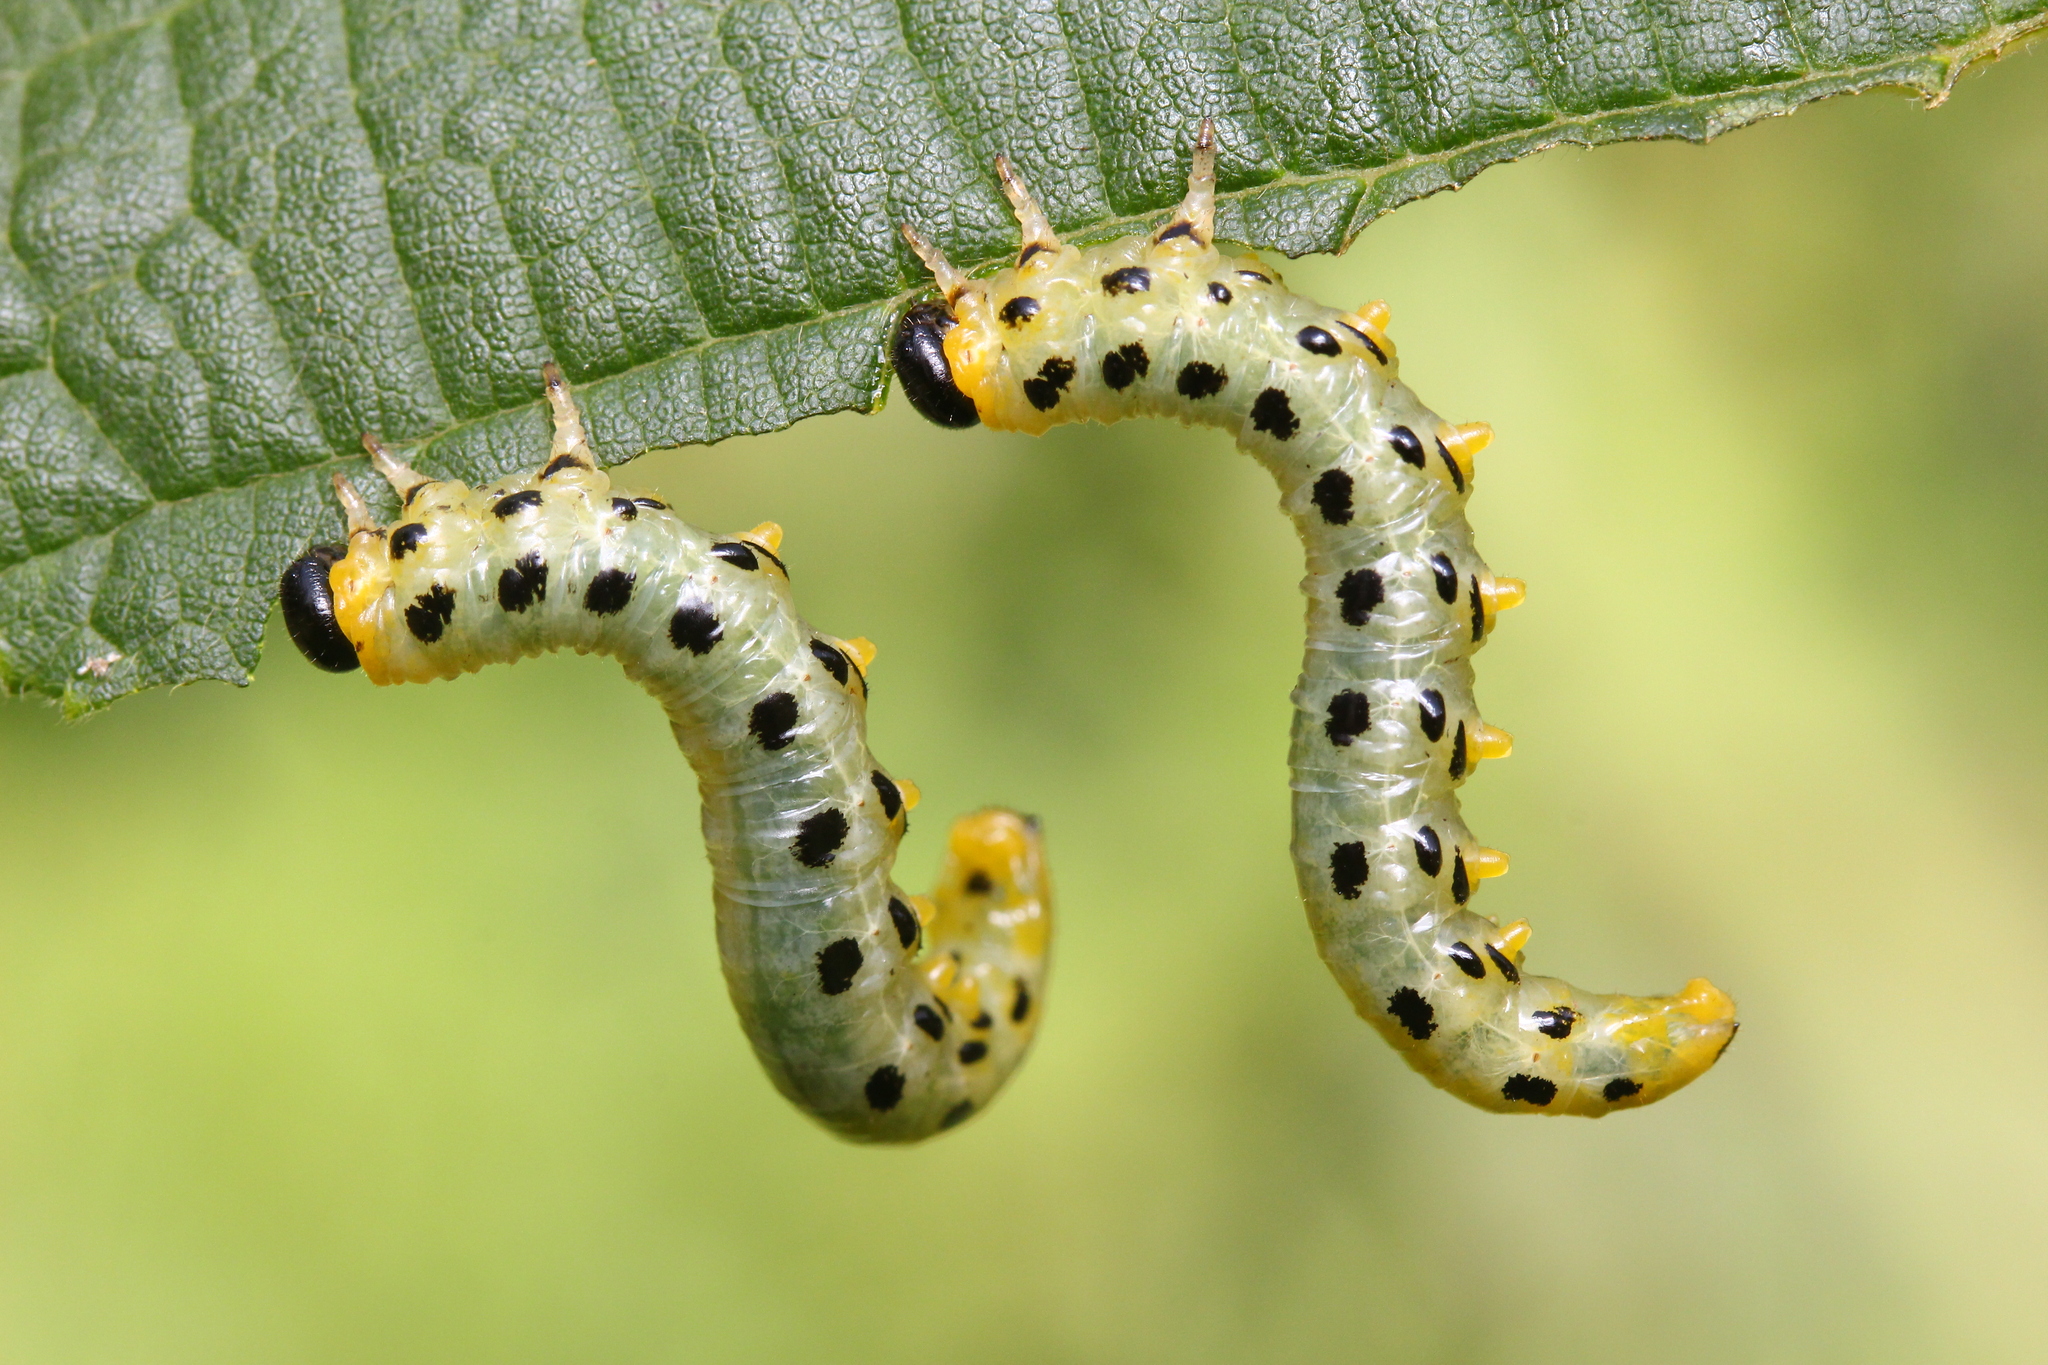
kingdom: Animalia
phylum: Arthropoda
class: Insecta
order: Hymenoptera
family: Tenthredinidae
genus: Craesus
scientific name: Craesus septentrionalis
